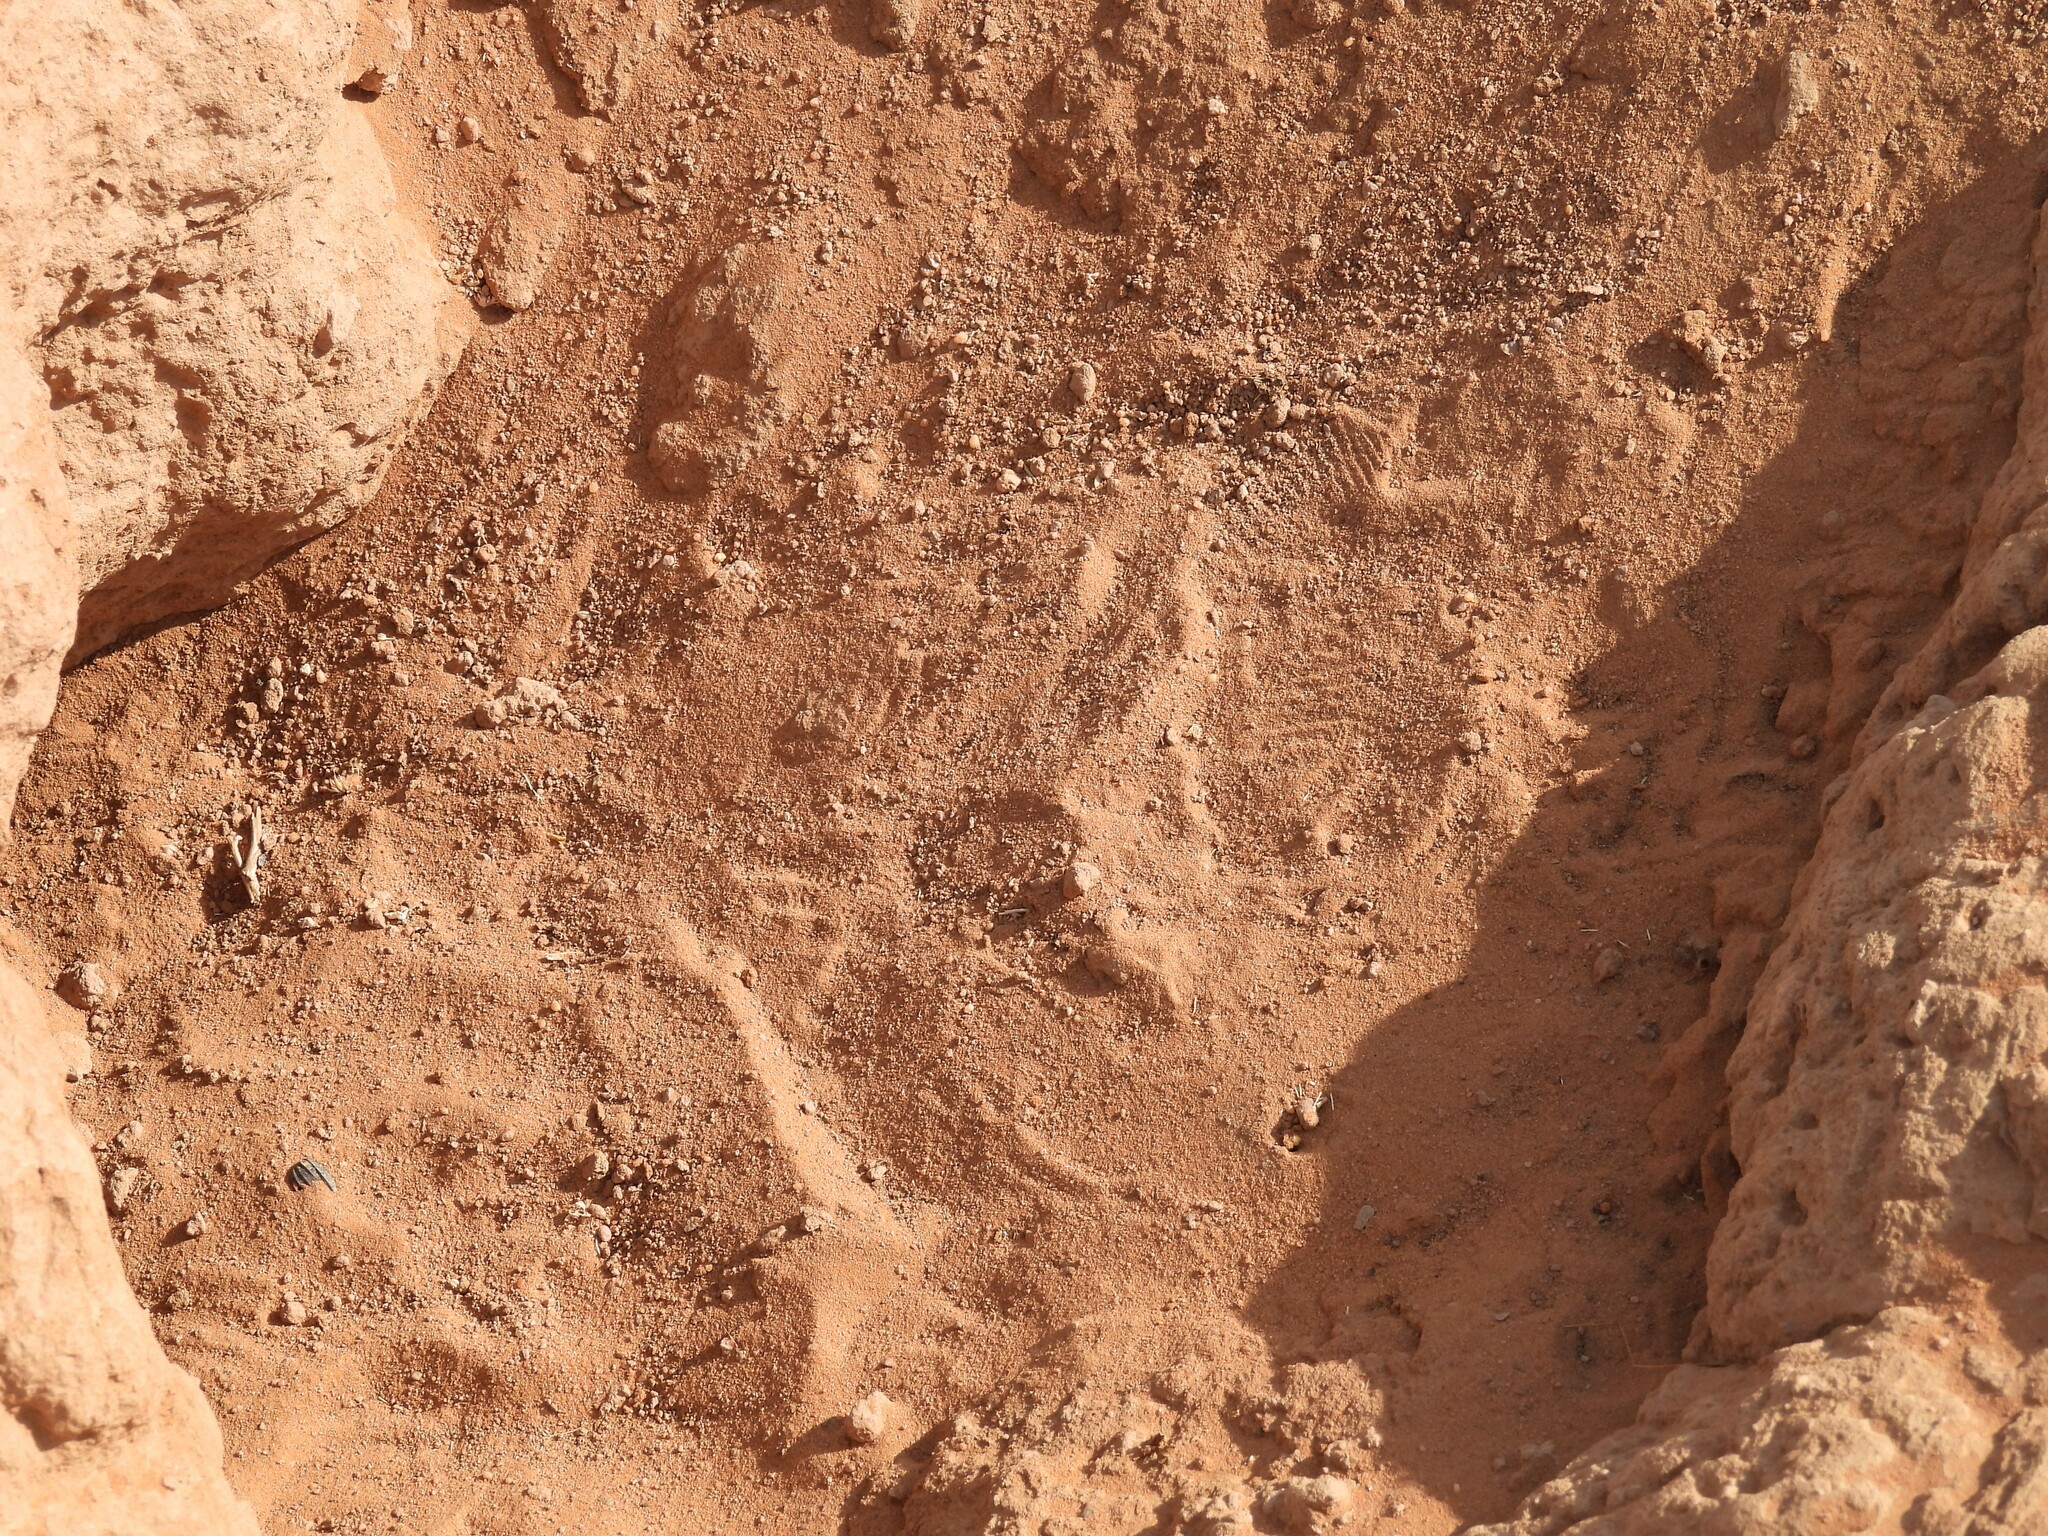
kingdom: Animalia
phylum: Chordata
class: Squamata
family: Agamidae
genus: Uromastyx
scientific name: Uromastyx aegyptia
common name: Egyptian mastigure
